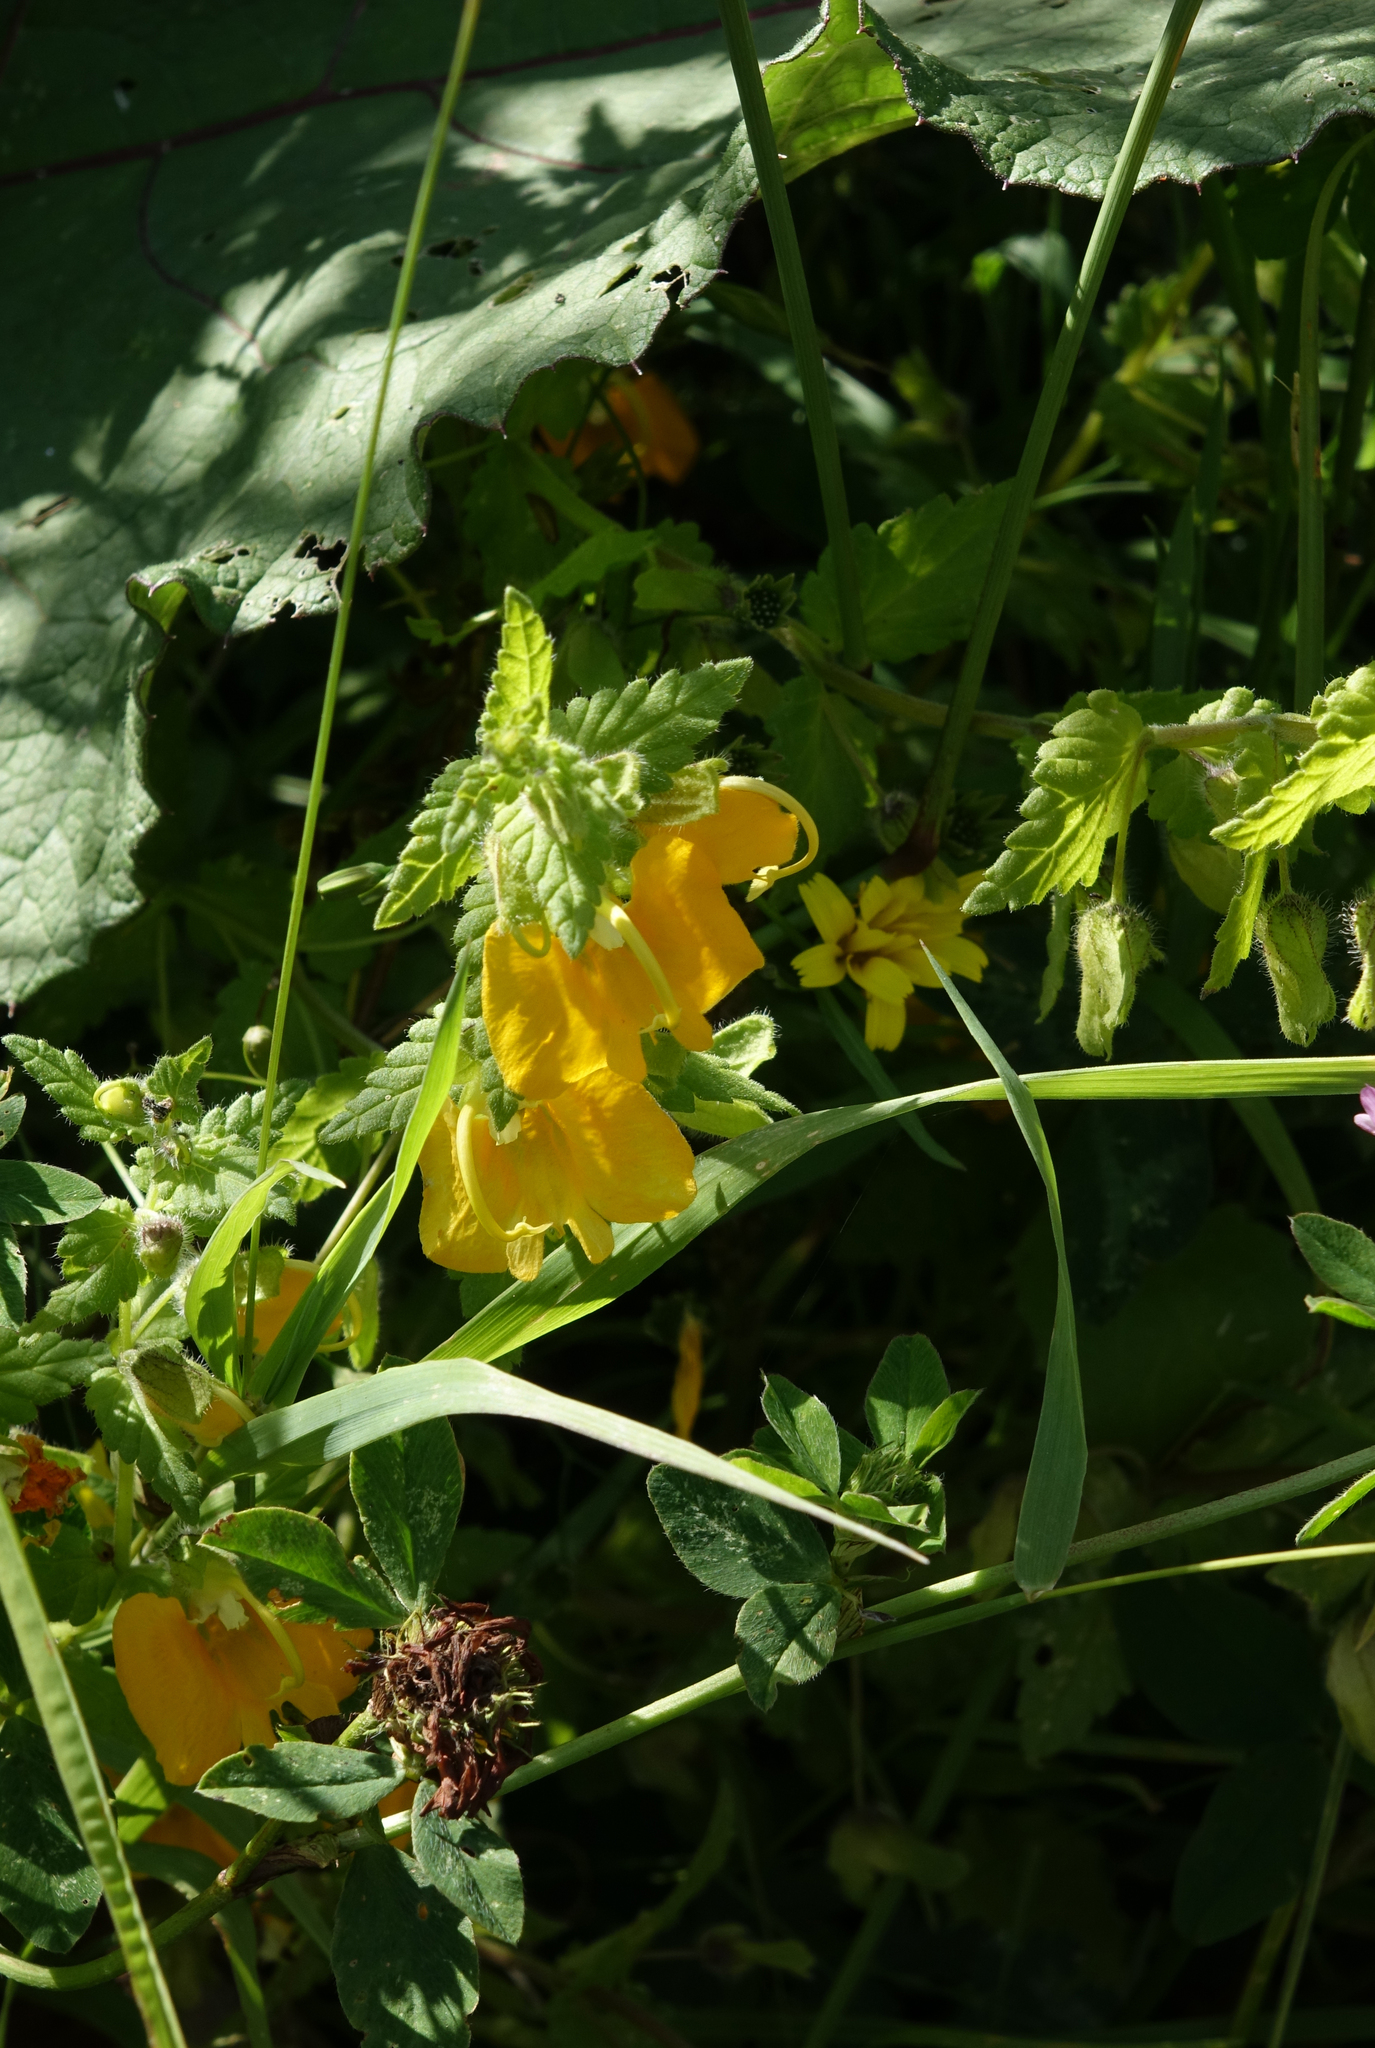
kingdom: Plantae
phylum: Tracheophyta
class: Magnoliopsida
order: Lamiales
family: Orobanchaceae
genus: Rhynchocorys
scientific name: Rhynchocorys orientalis
